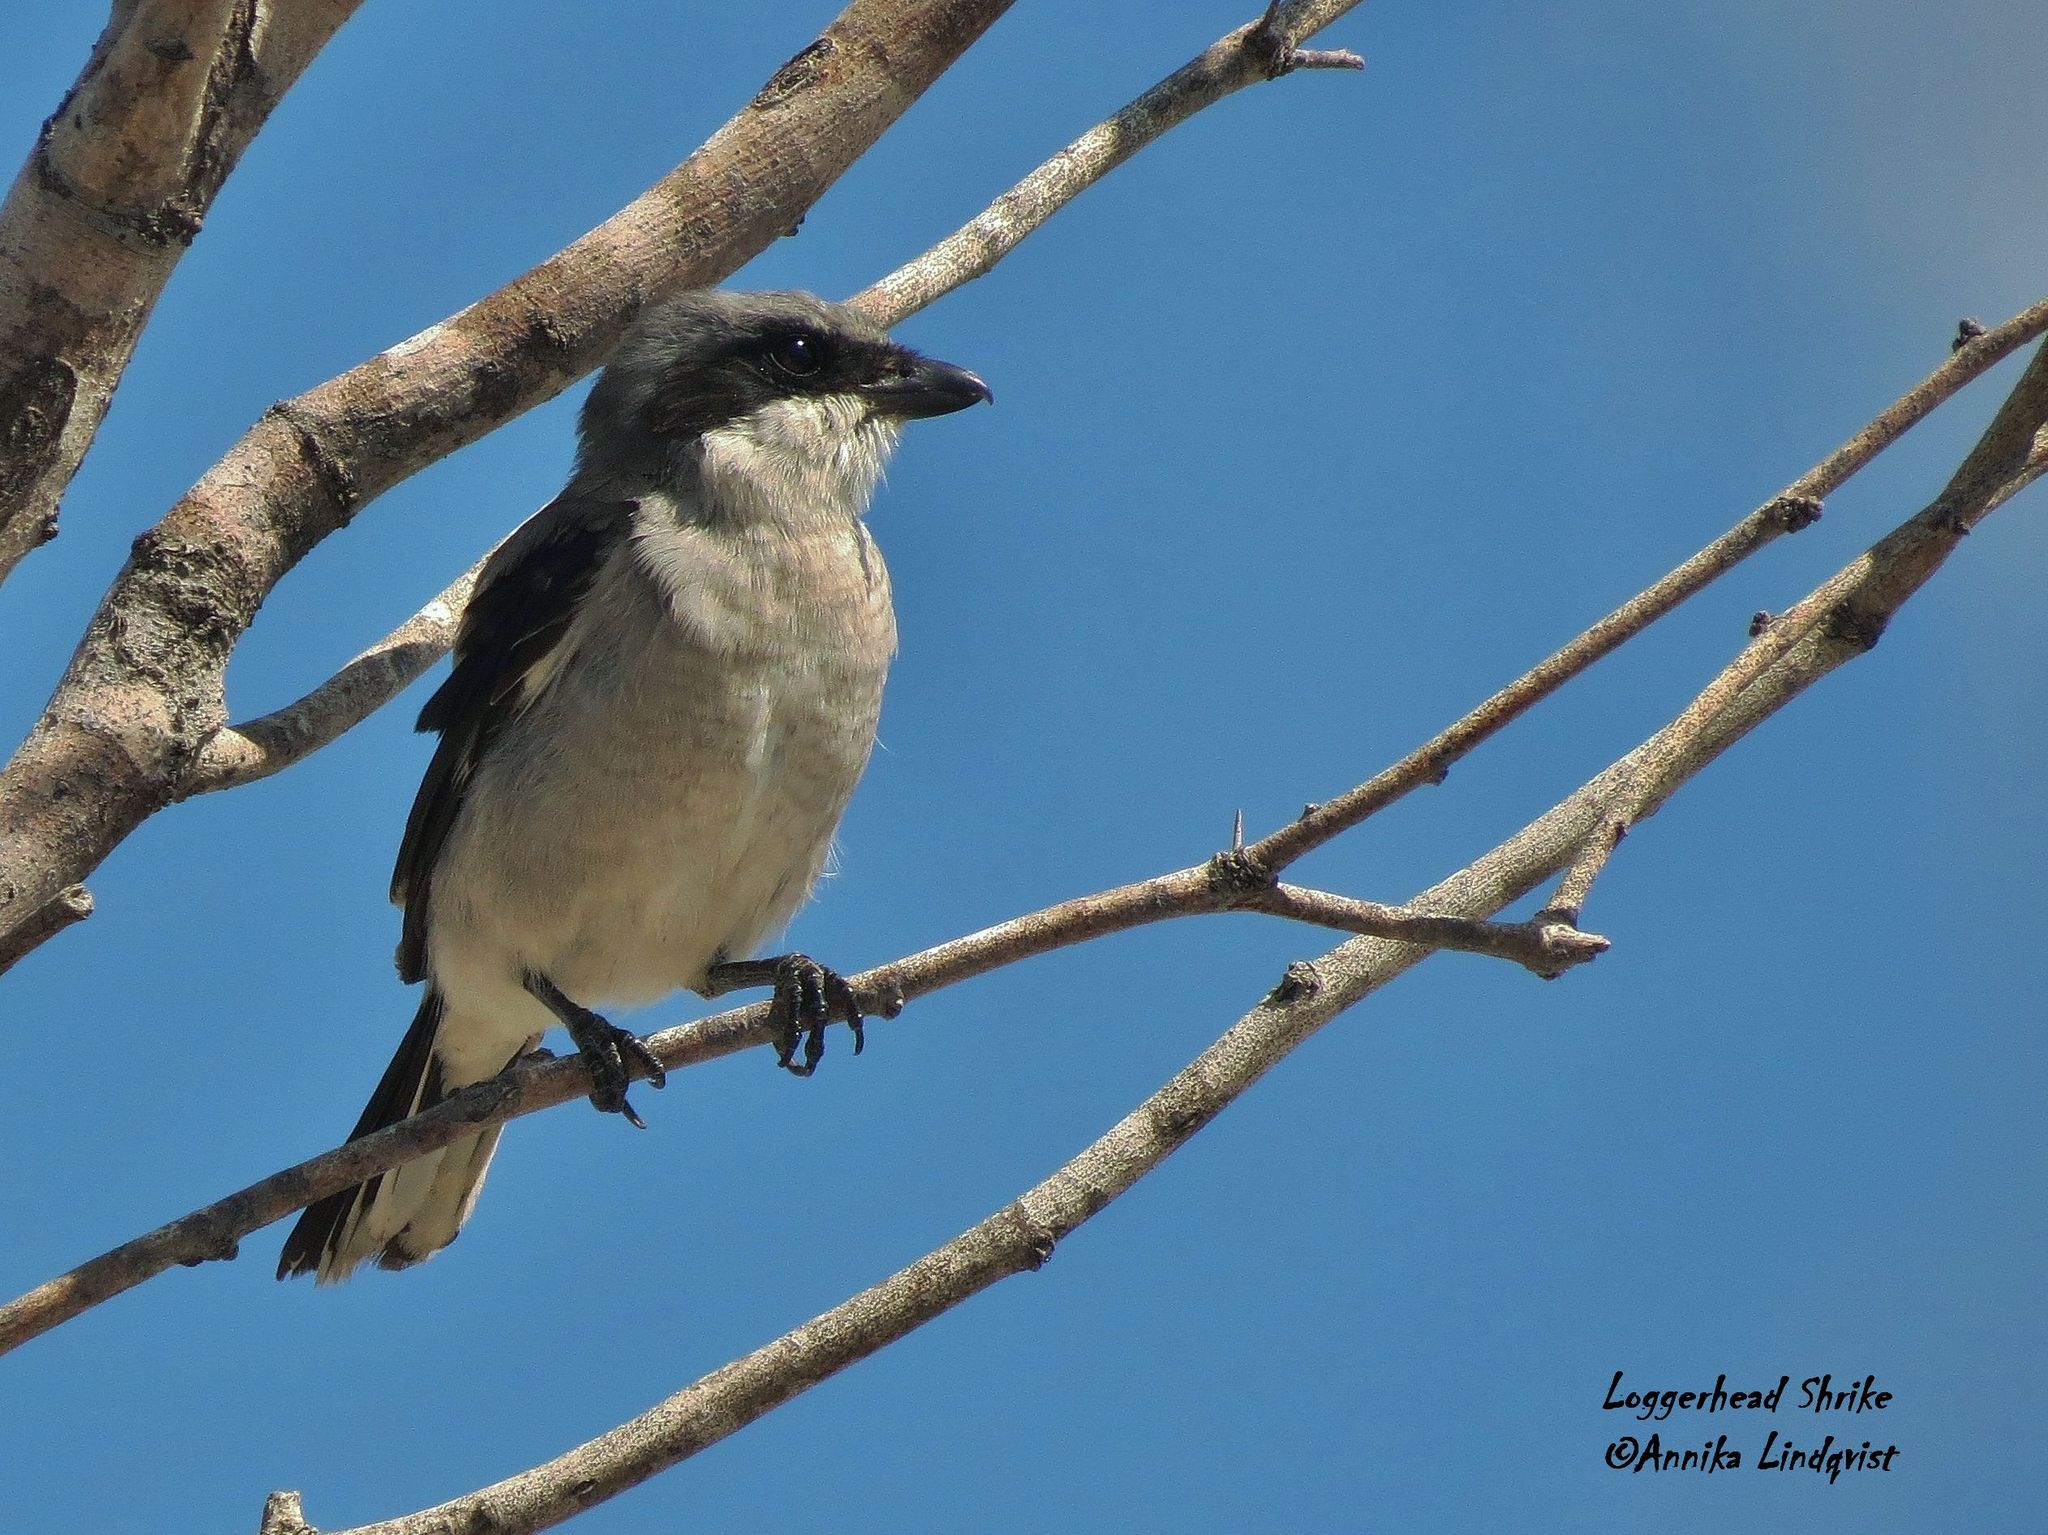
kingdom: Animalia
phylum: Chordata
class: Aves
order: Passeriformes
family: Laniidae
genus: Lanius
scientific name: Lanius ludovicianus
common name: Loggerhead shrike
